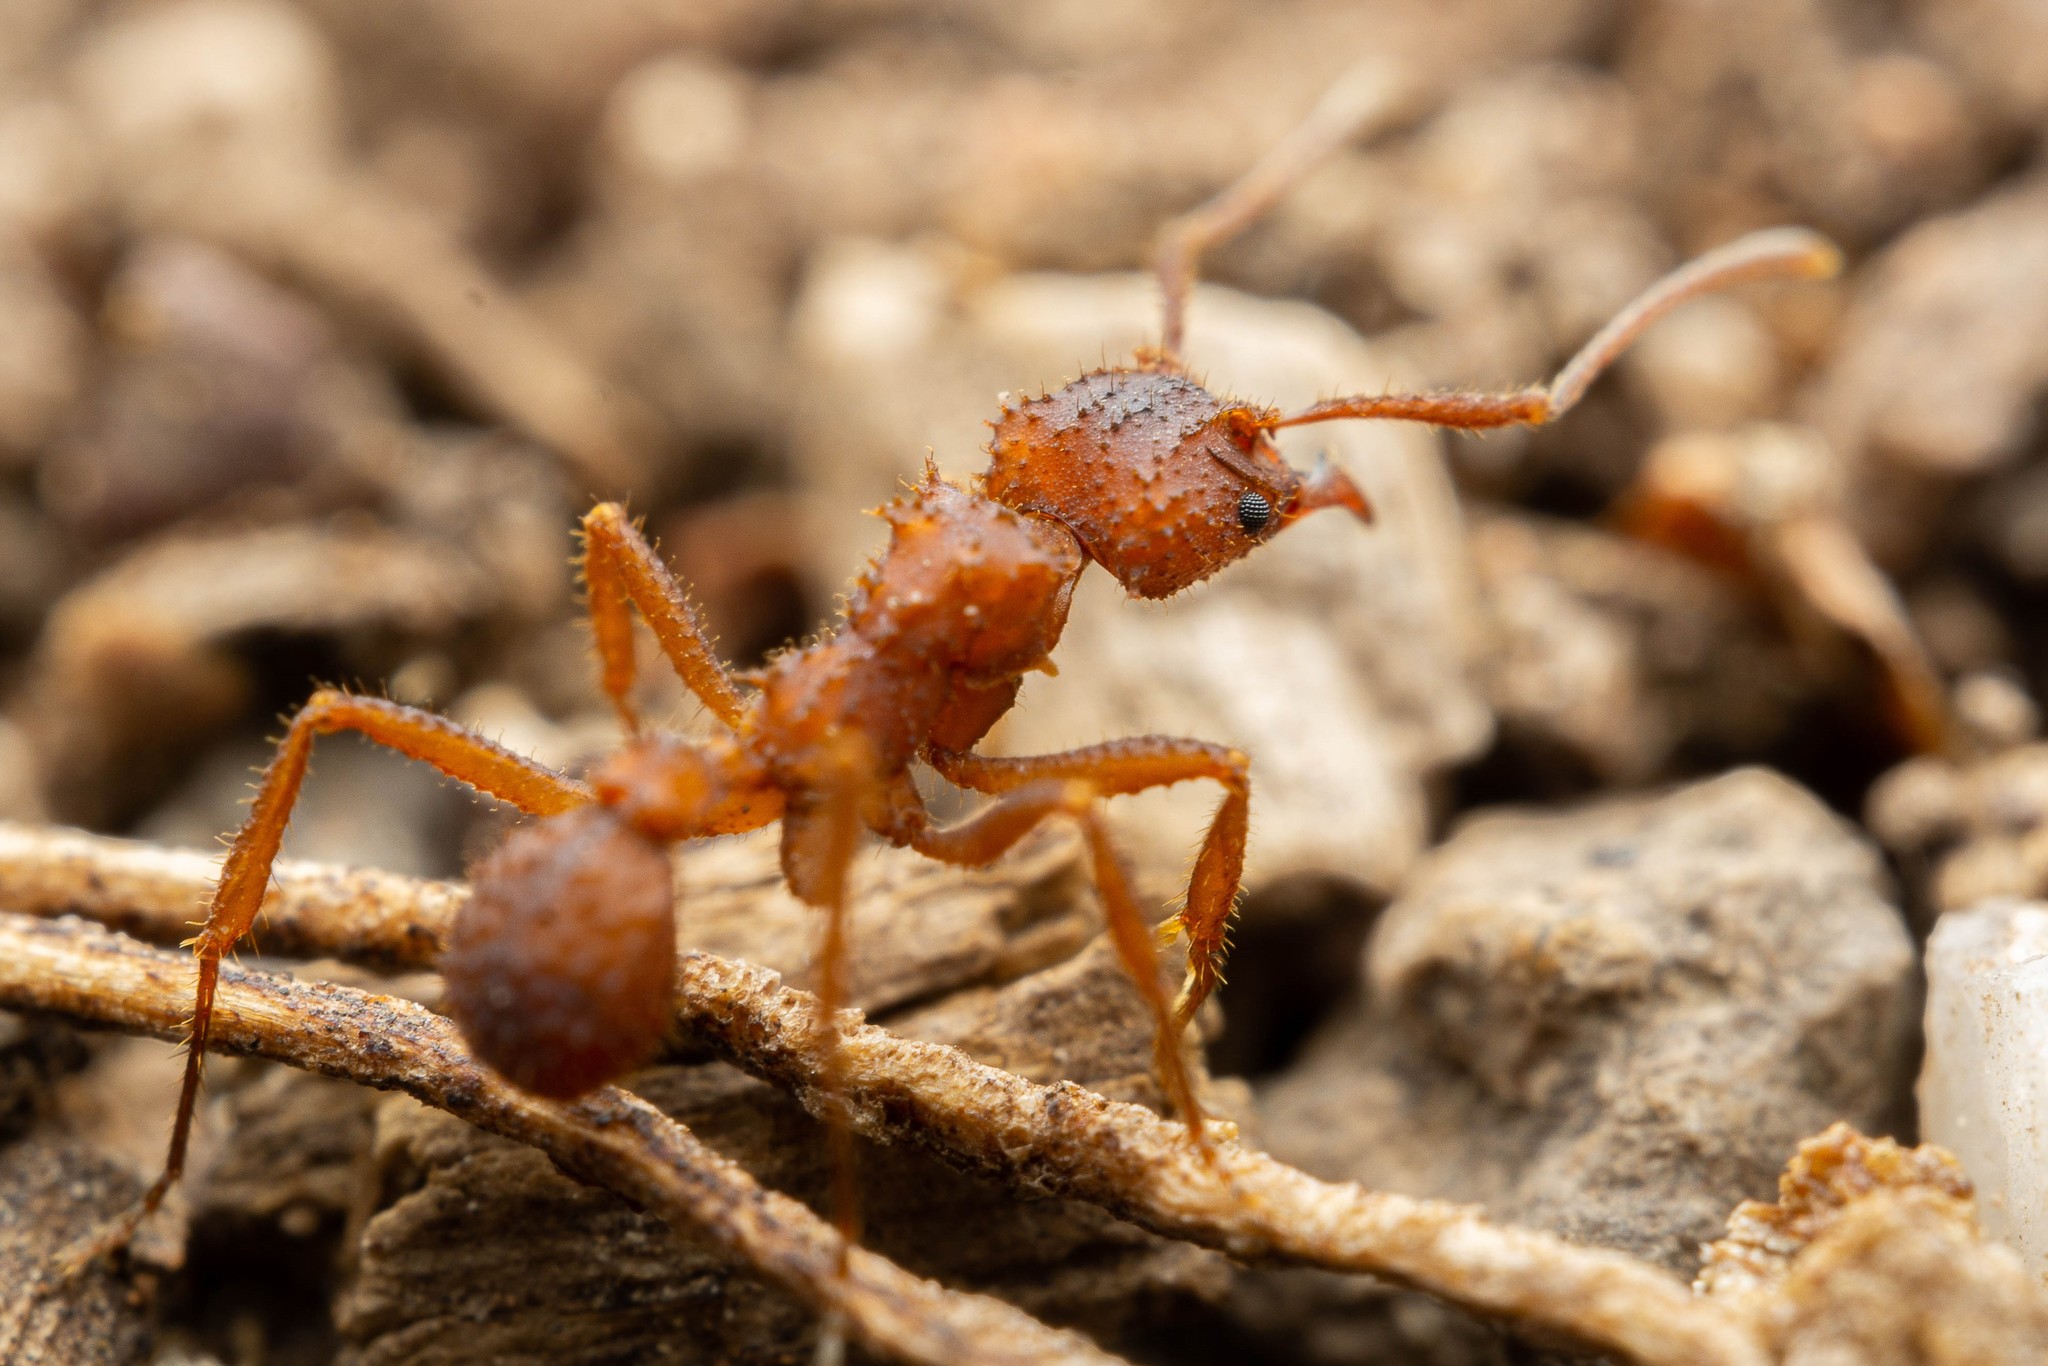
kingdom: Animalia
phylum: Arthropoda
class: Insecta
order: Hymenoptera
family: Formicidae
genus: Trachymyrmex
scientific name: Trachymyrmex arizonensis
